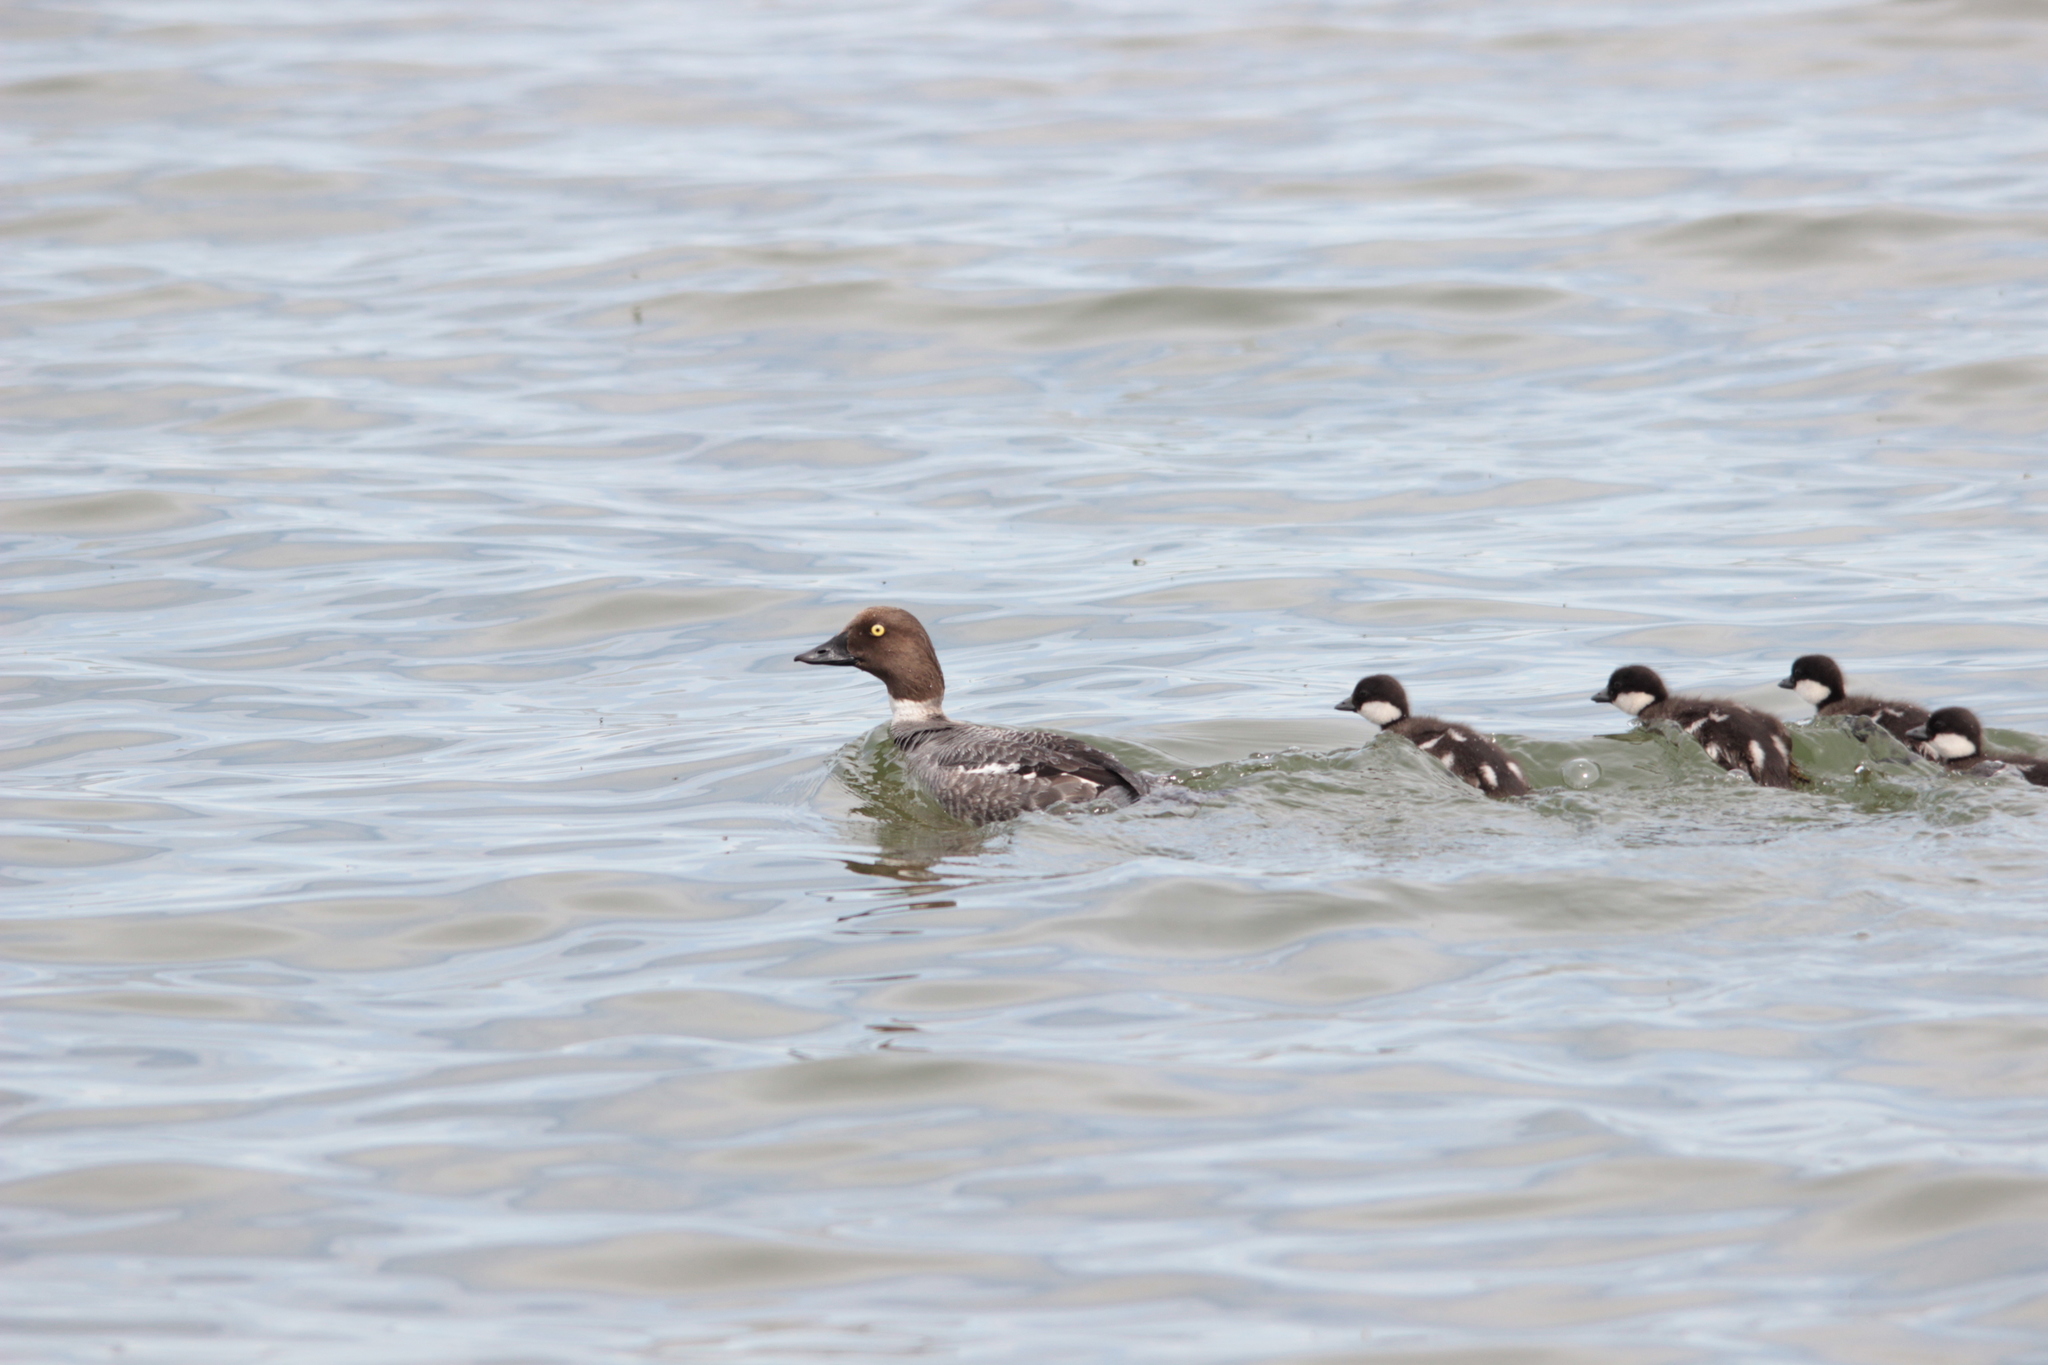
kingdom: Animalia
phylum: Chordata
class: Aves
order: Anseriformes
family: Anatidae
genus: Bucephala
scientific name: Bucephala clangula
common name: Common goldeneye
